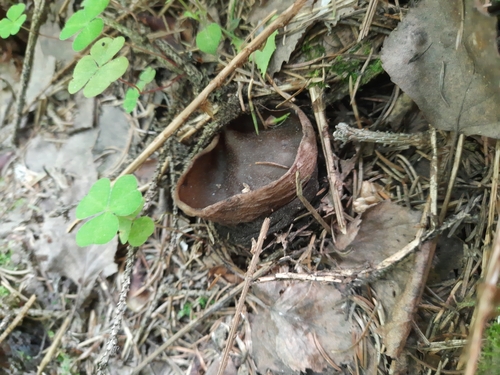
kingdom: Fungi
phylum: Ascomycota
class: Pezizomycetes
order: Pezizales
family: Sarcosomataceae
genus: Sarcosoma
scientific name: Sarcosoma globosum
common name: Charred-pancake cup
